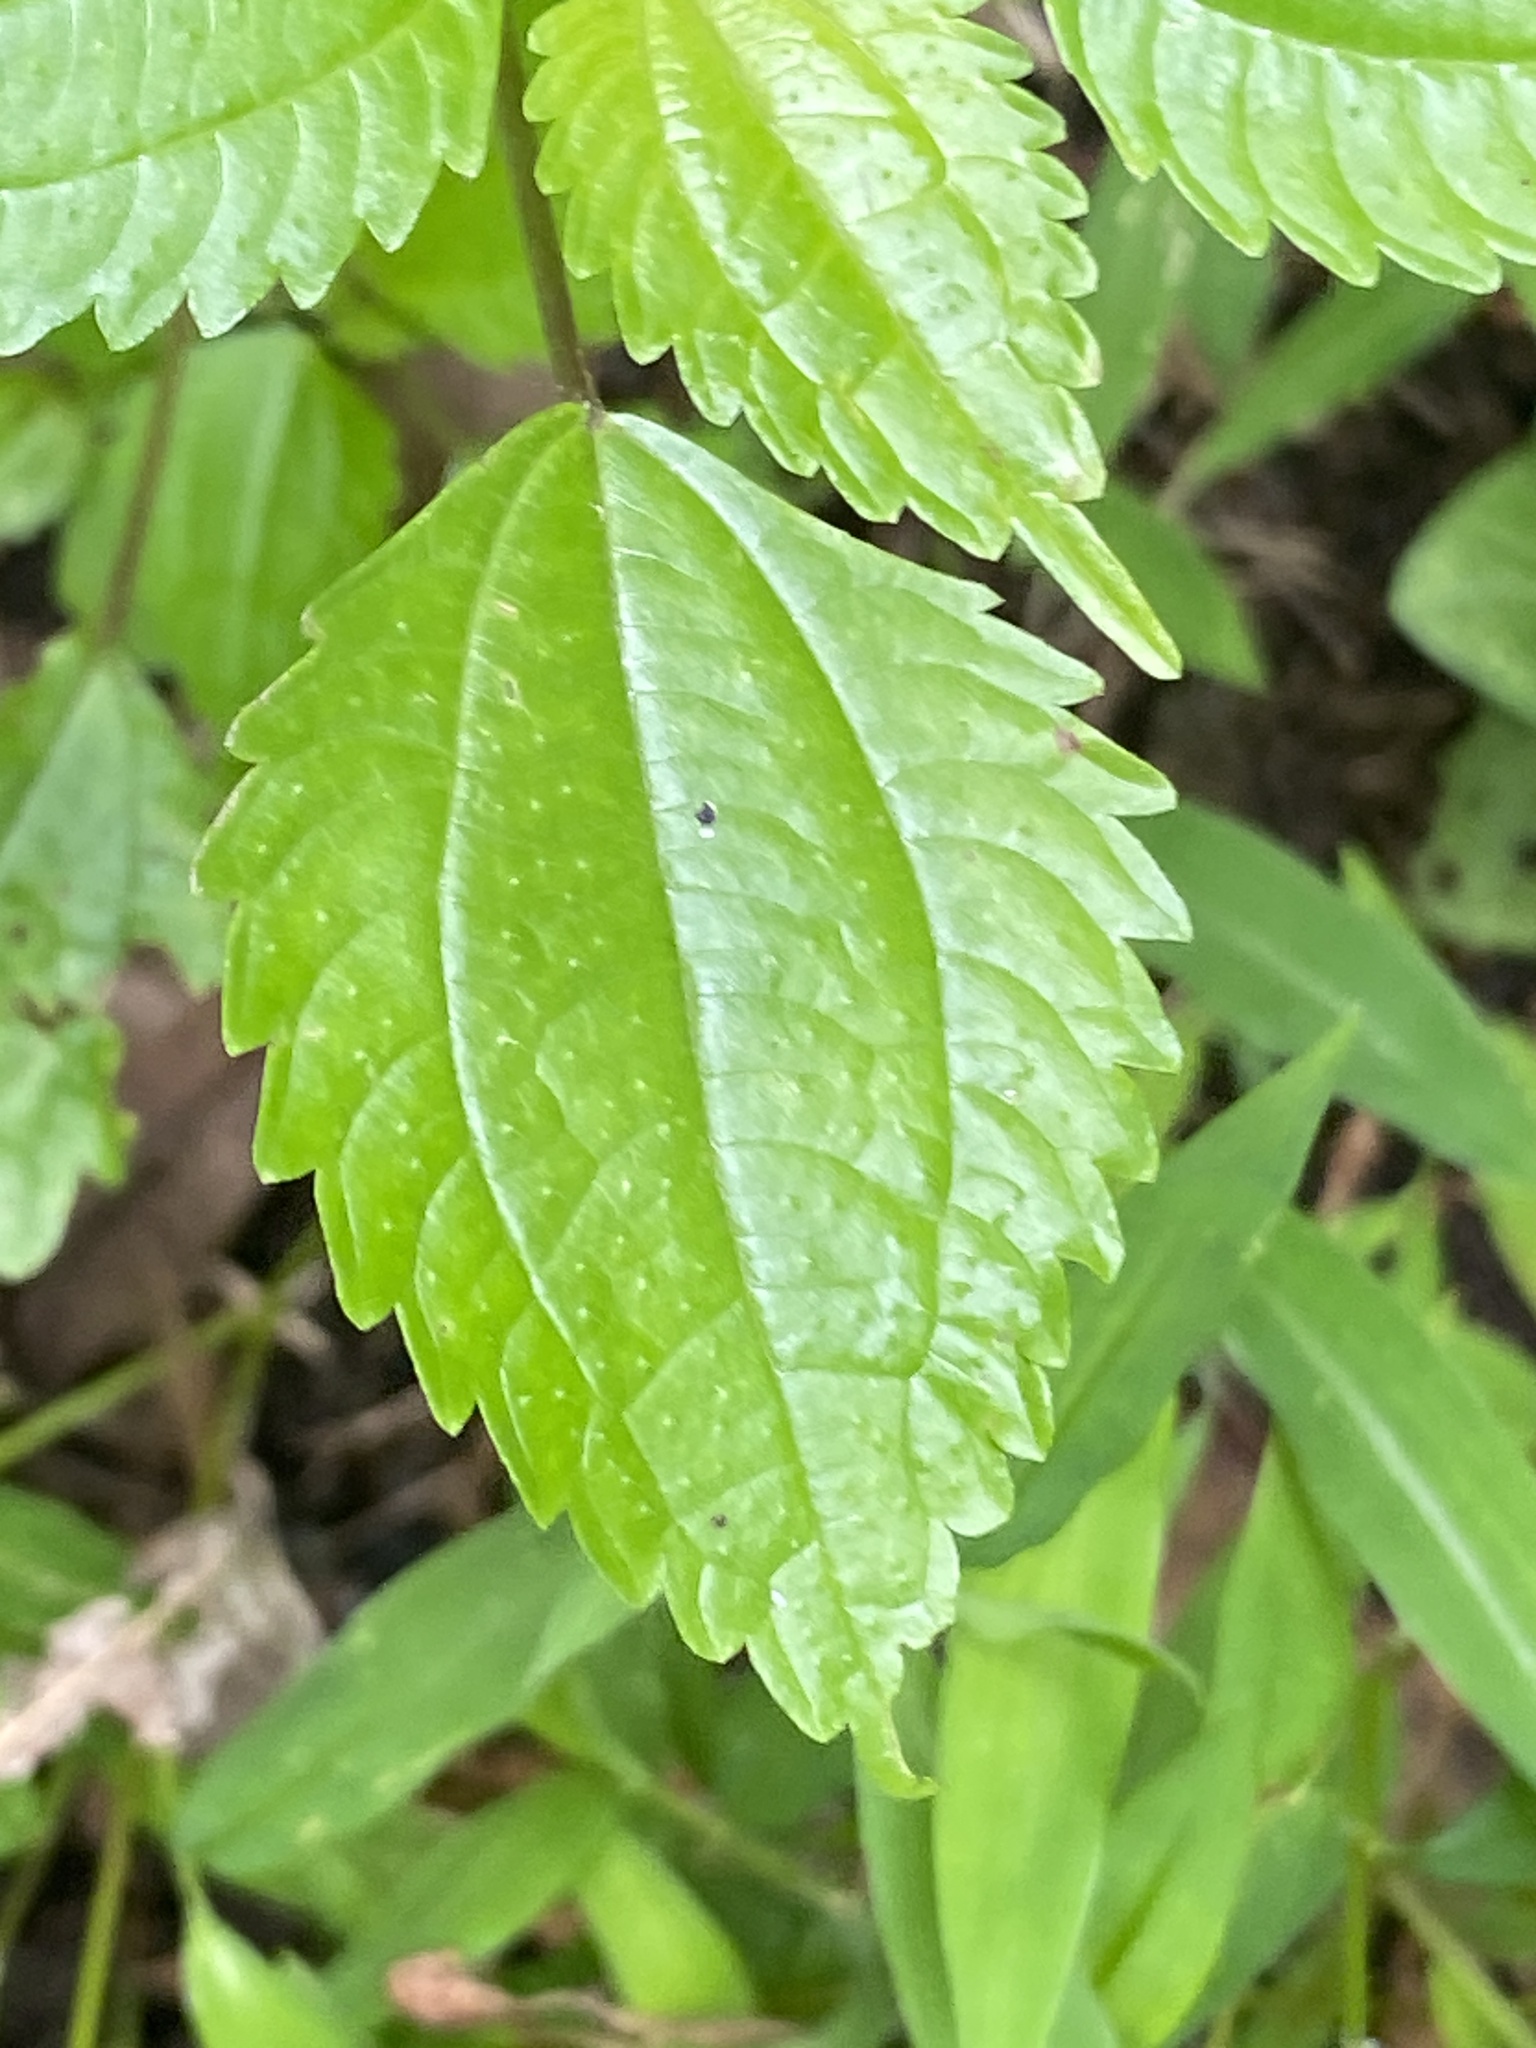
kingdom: Plantae
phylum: Tracheophyta
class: Magnoliopsida
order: Rosales
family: Urticaceae
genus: Pilea
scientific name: Pilea pumila
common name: Clearweed
